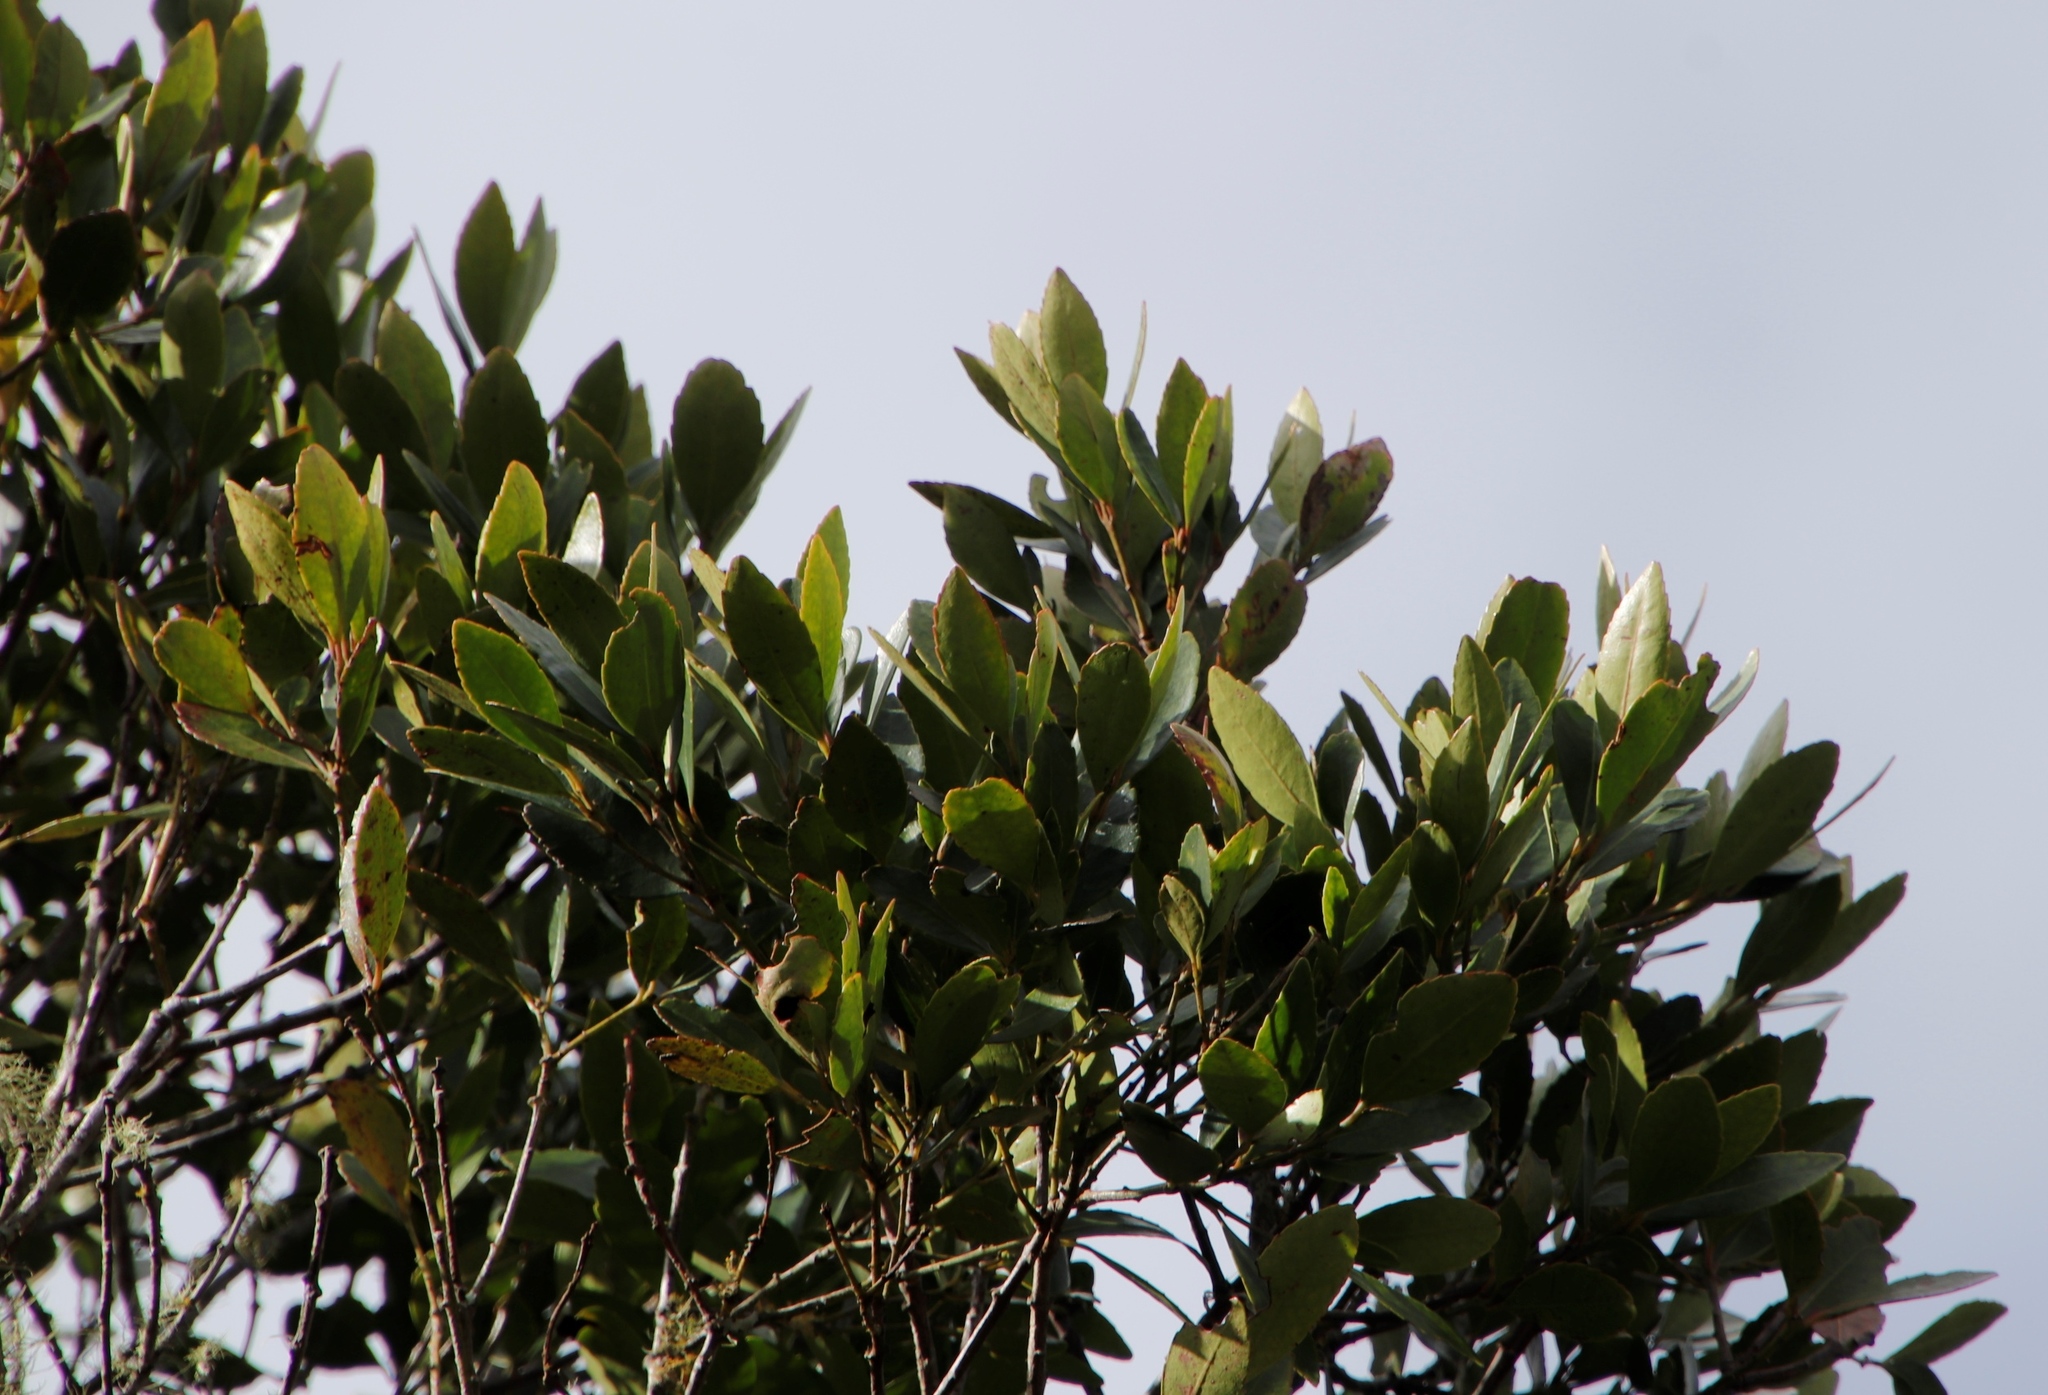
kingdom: Plantae
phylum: Tracheophyta
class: Magnoliopsida
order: Celastrales
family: Celastraceae
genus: Elaeodendron
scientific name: Elaeodendron schinoides
